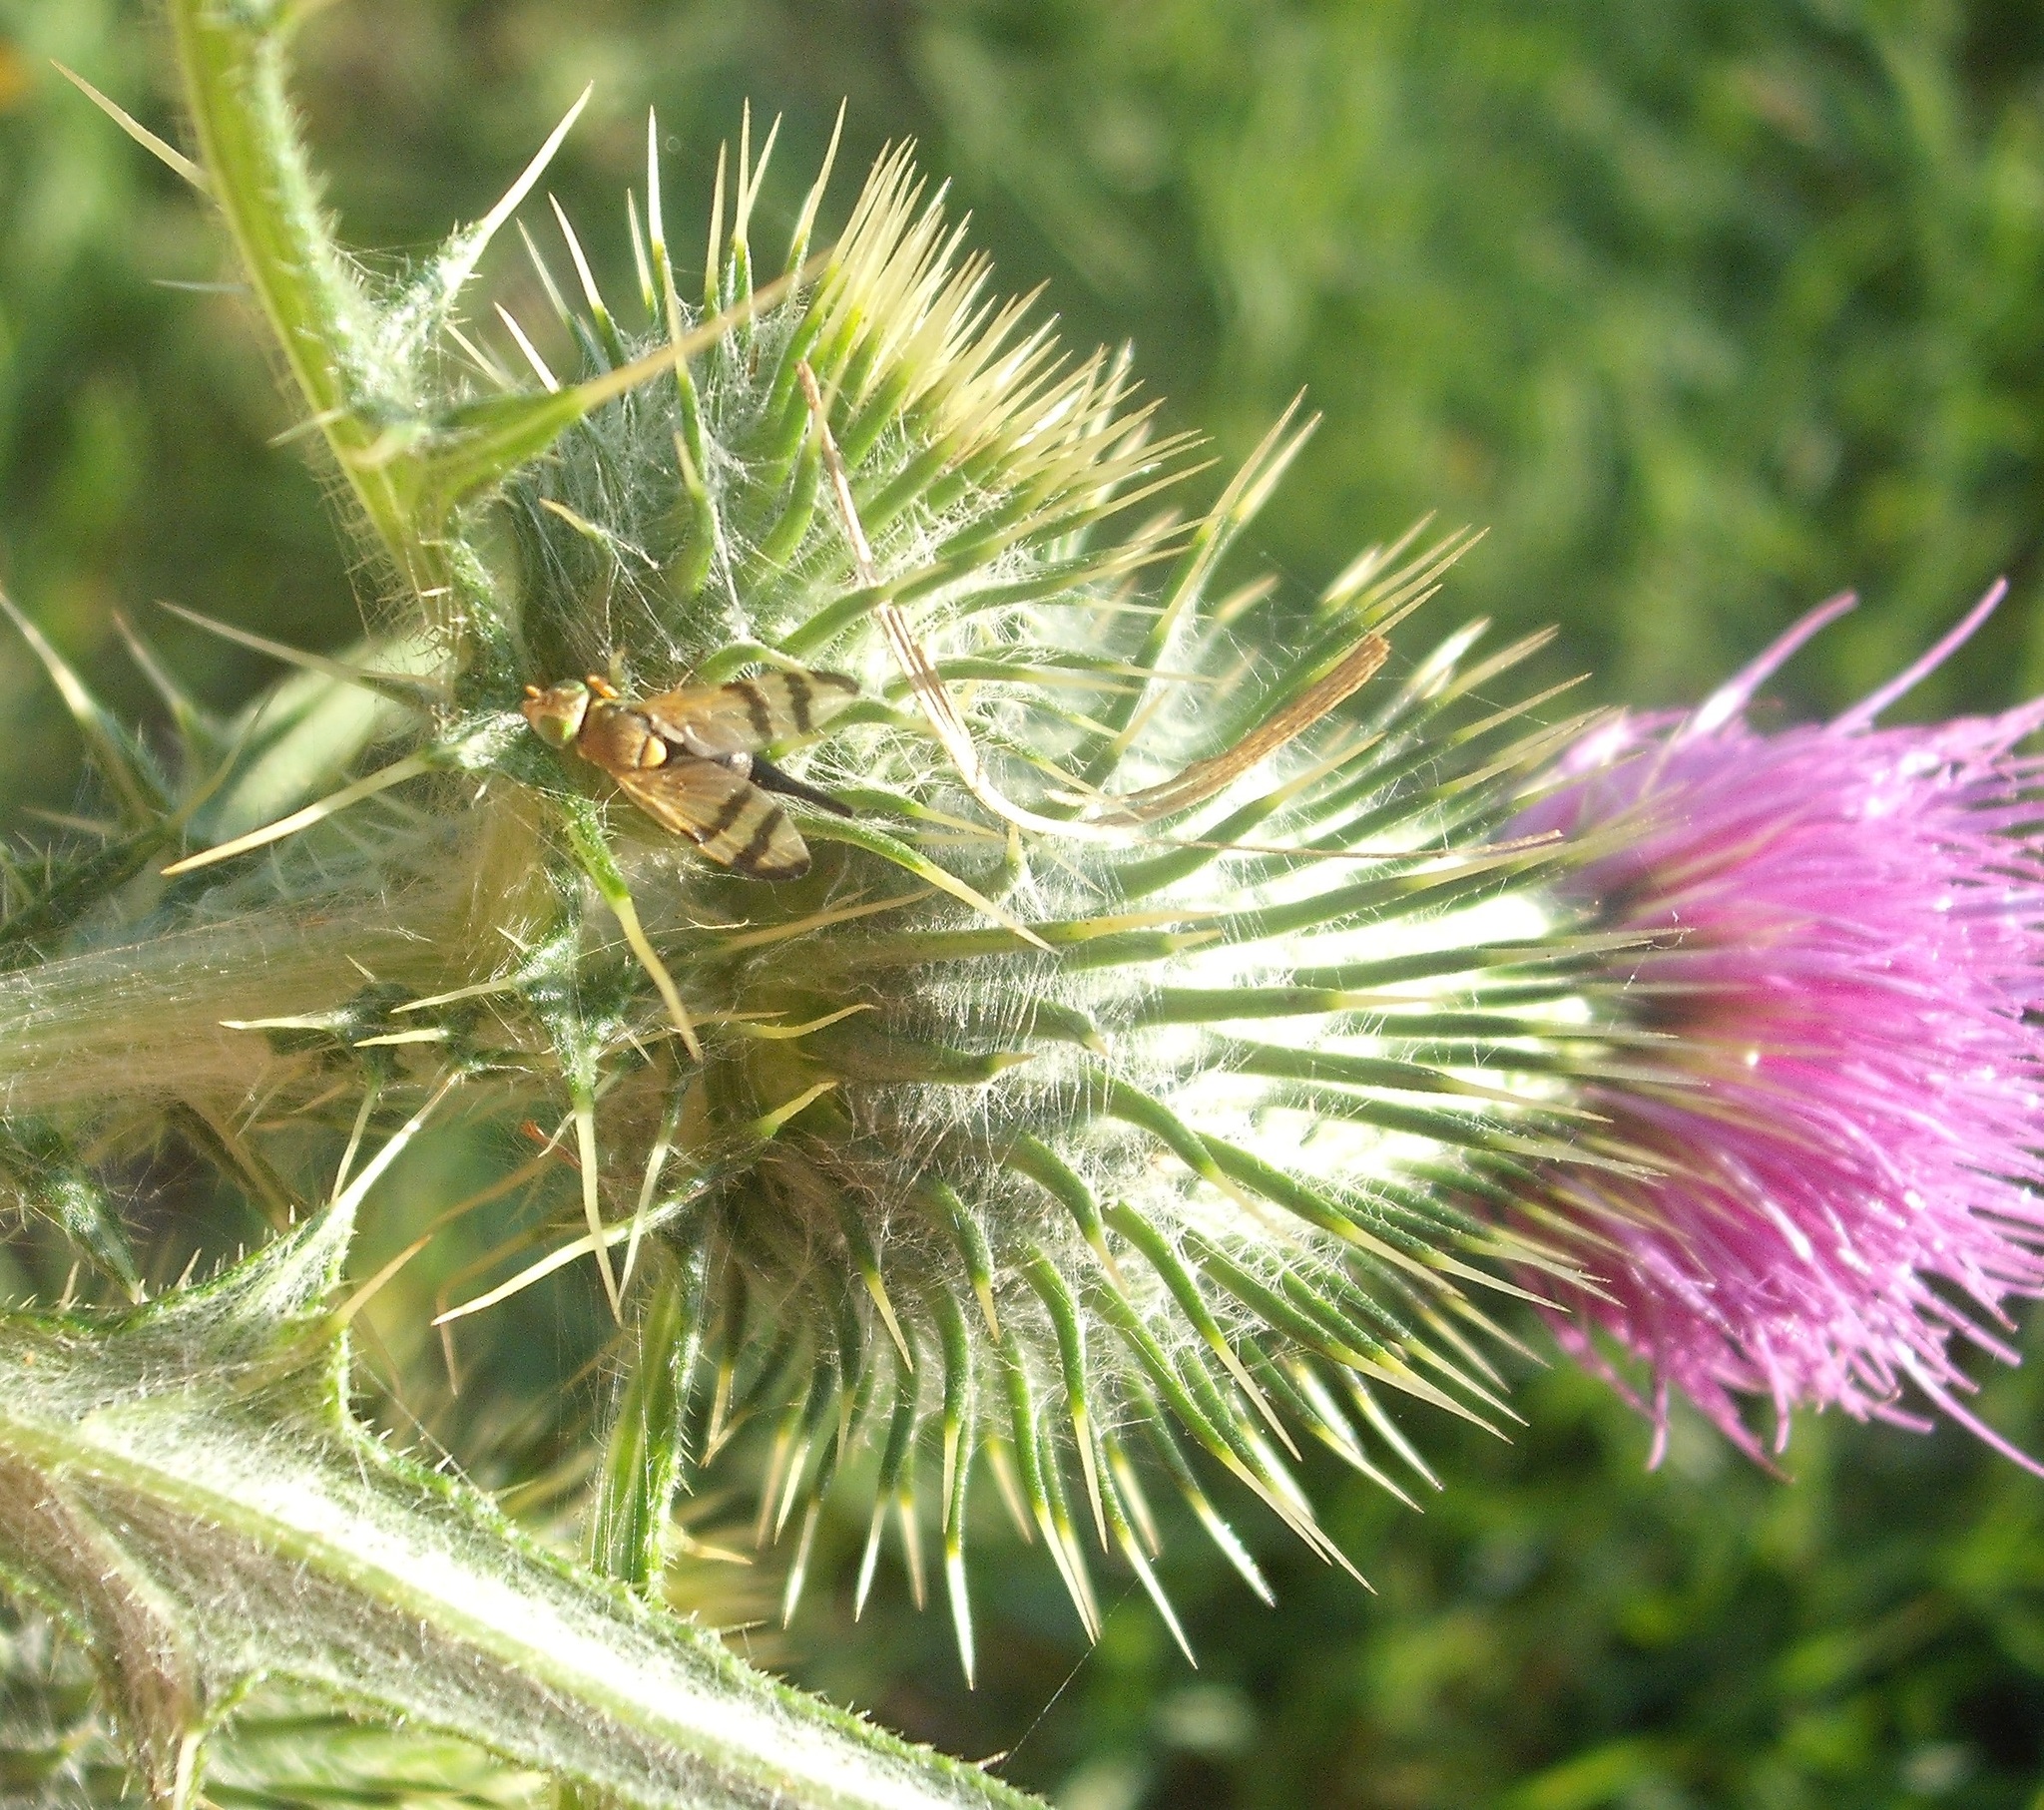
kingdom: Animalia
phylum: Arthropoda
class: Insecta
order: Diptera
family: Tephritidae
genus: Urophora
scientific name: Urophora stylata
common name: Fruit fly
